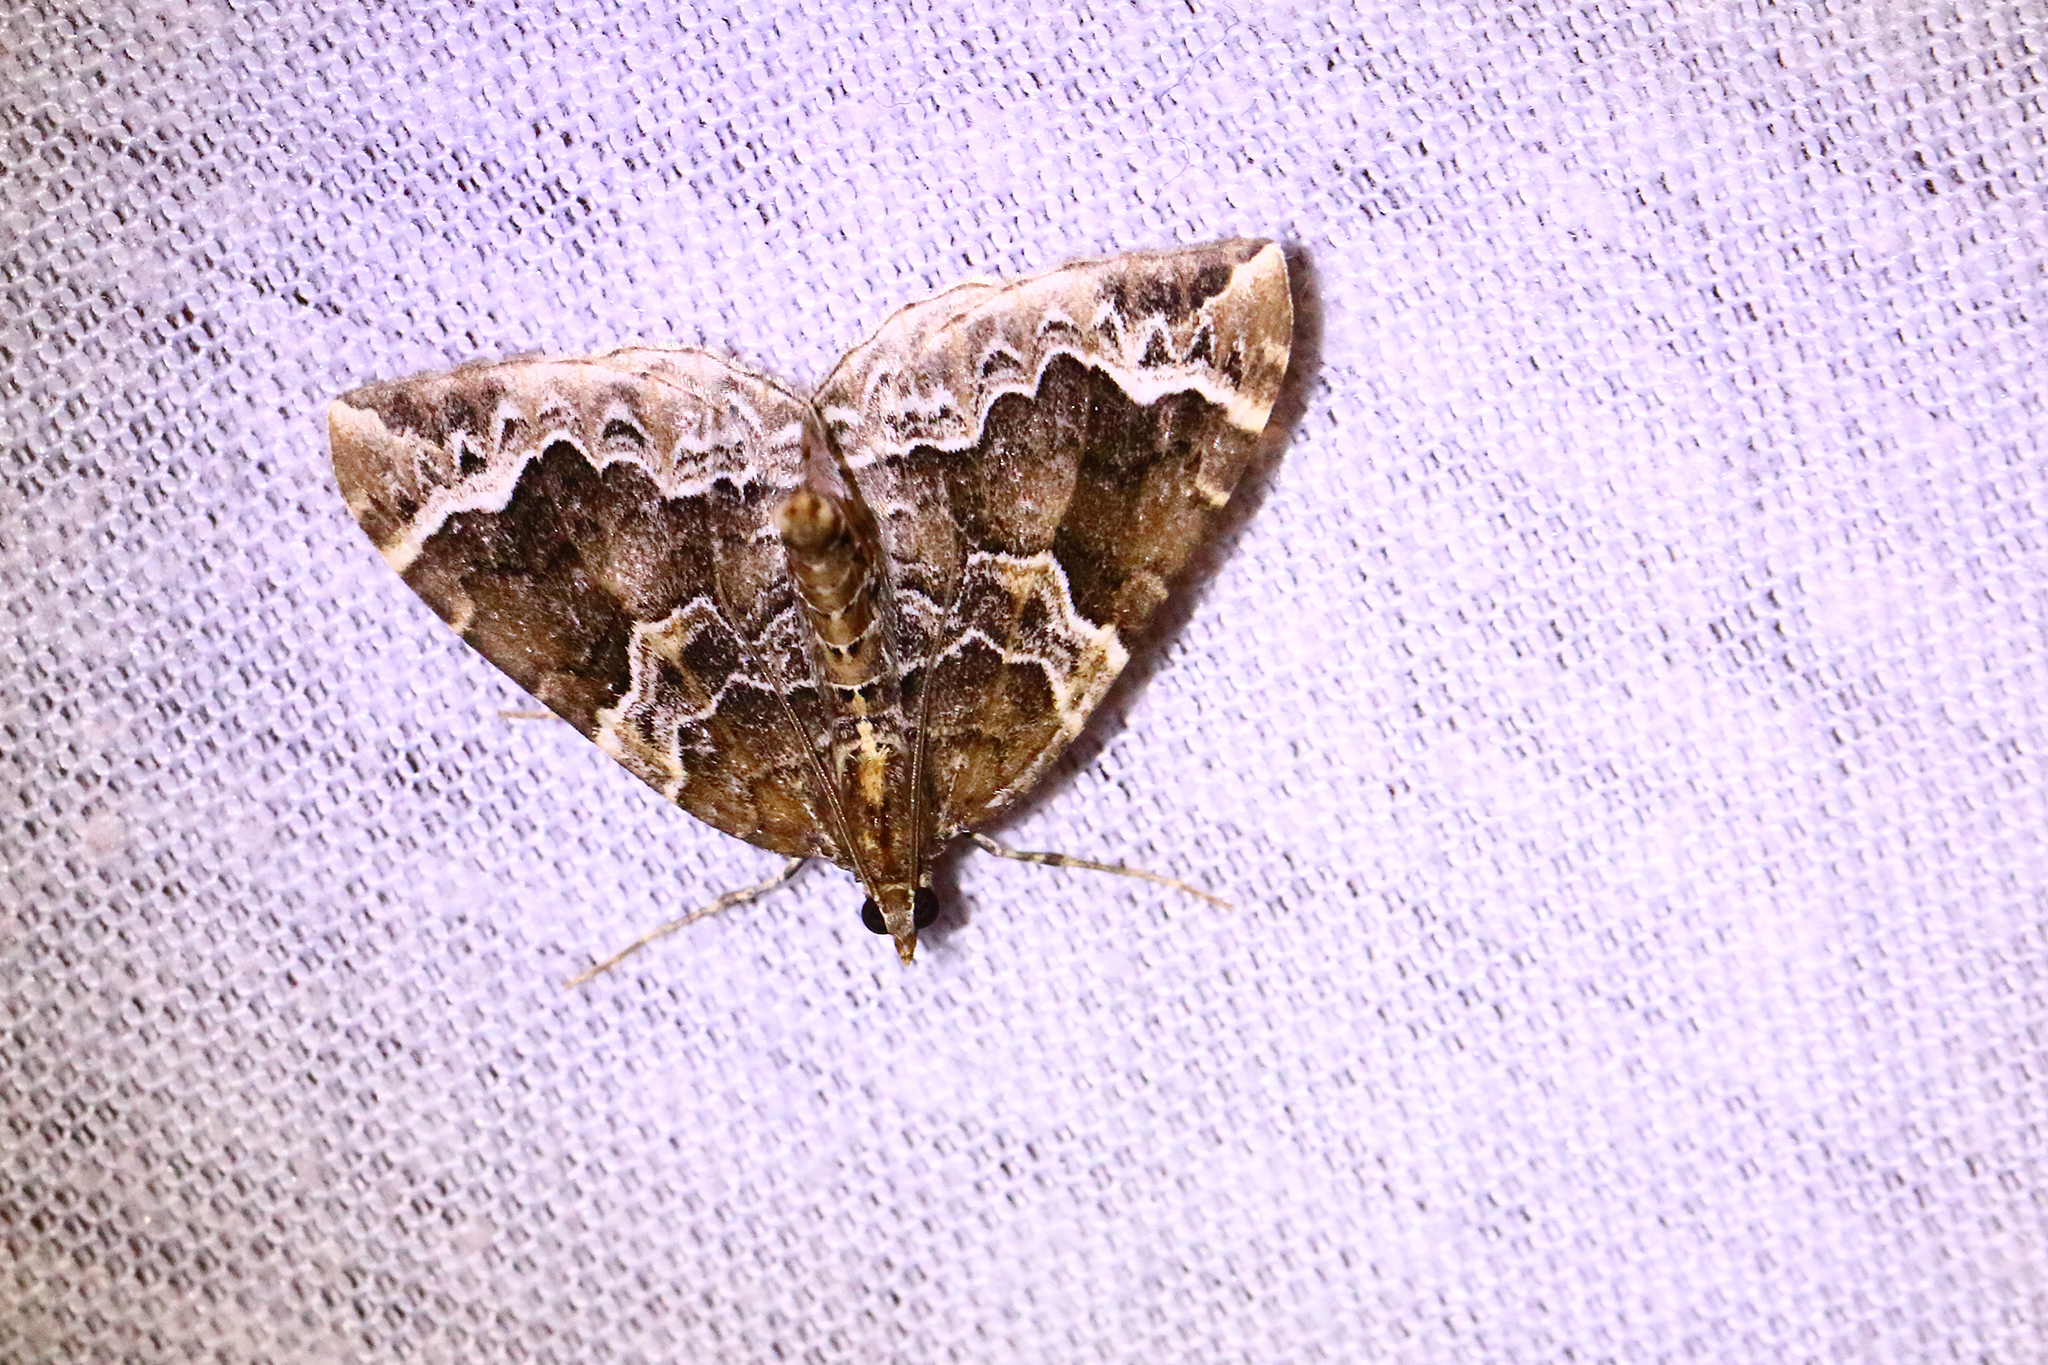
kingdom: Animalia
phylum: Arthropoda
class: Insecta
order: Lepidoptera
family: Geometridae
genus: Eulithis
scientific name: Eulithis prunata
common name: Phoenix
